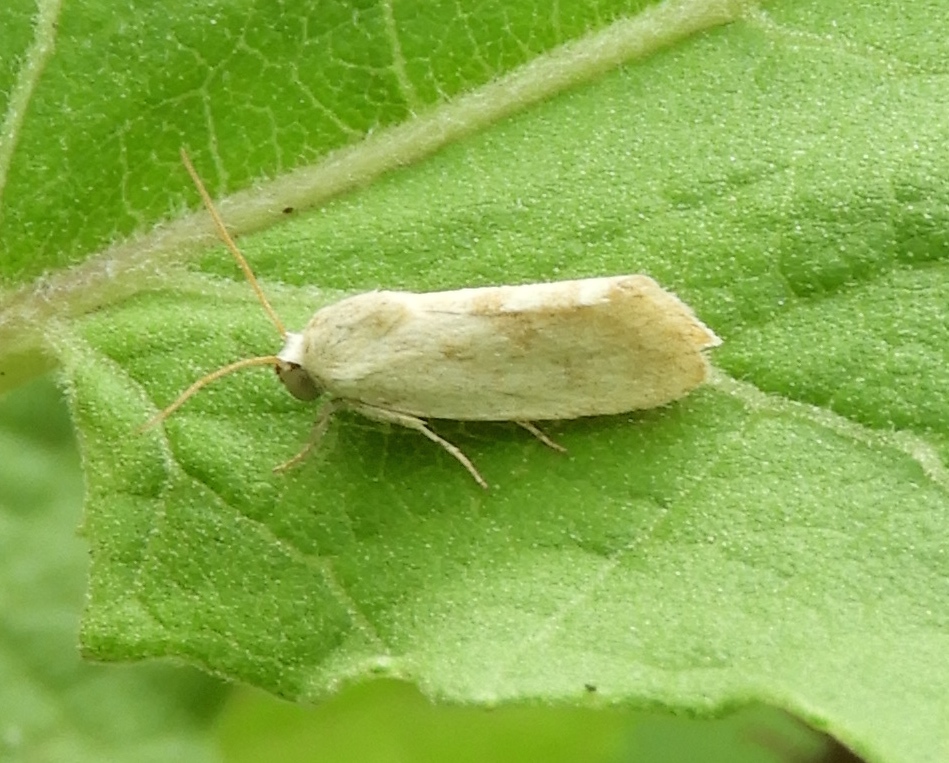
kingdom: Animalia
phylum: Arthropoda
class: Insecta
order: Lepidoptera
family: Noctuidae
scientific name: Noctuidae
